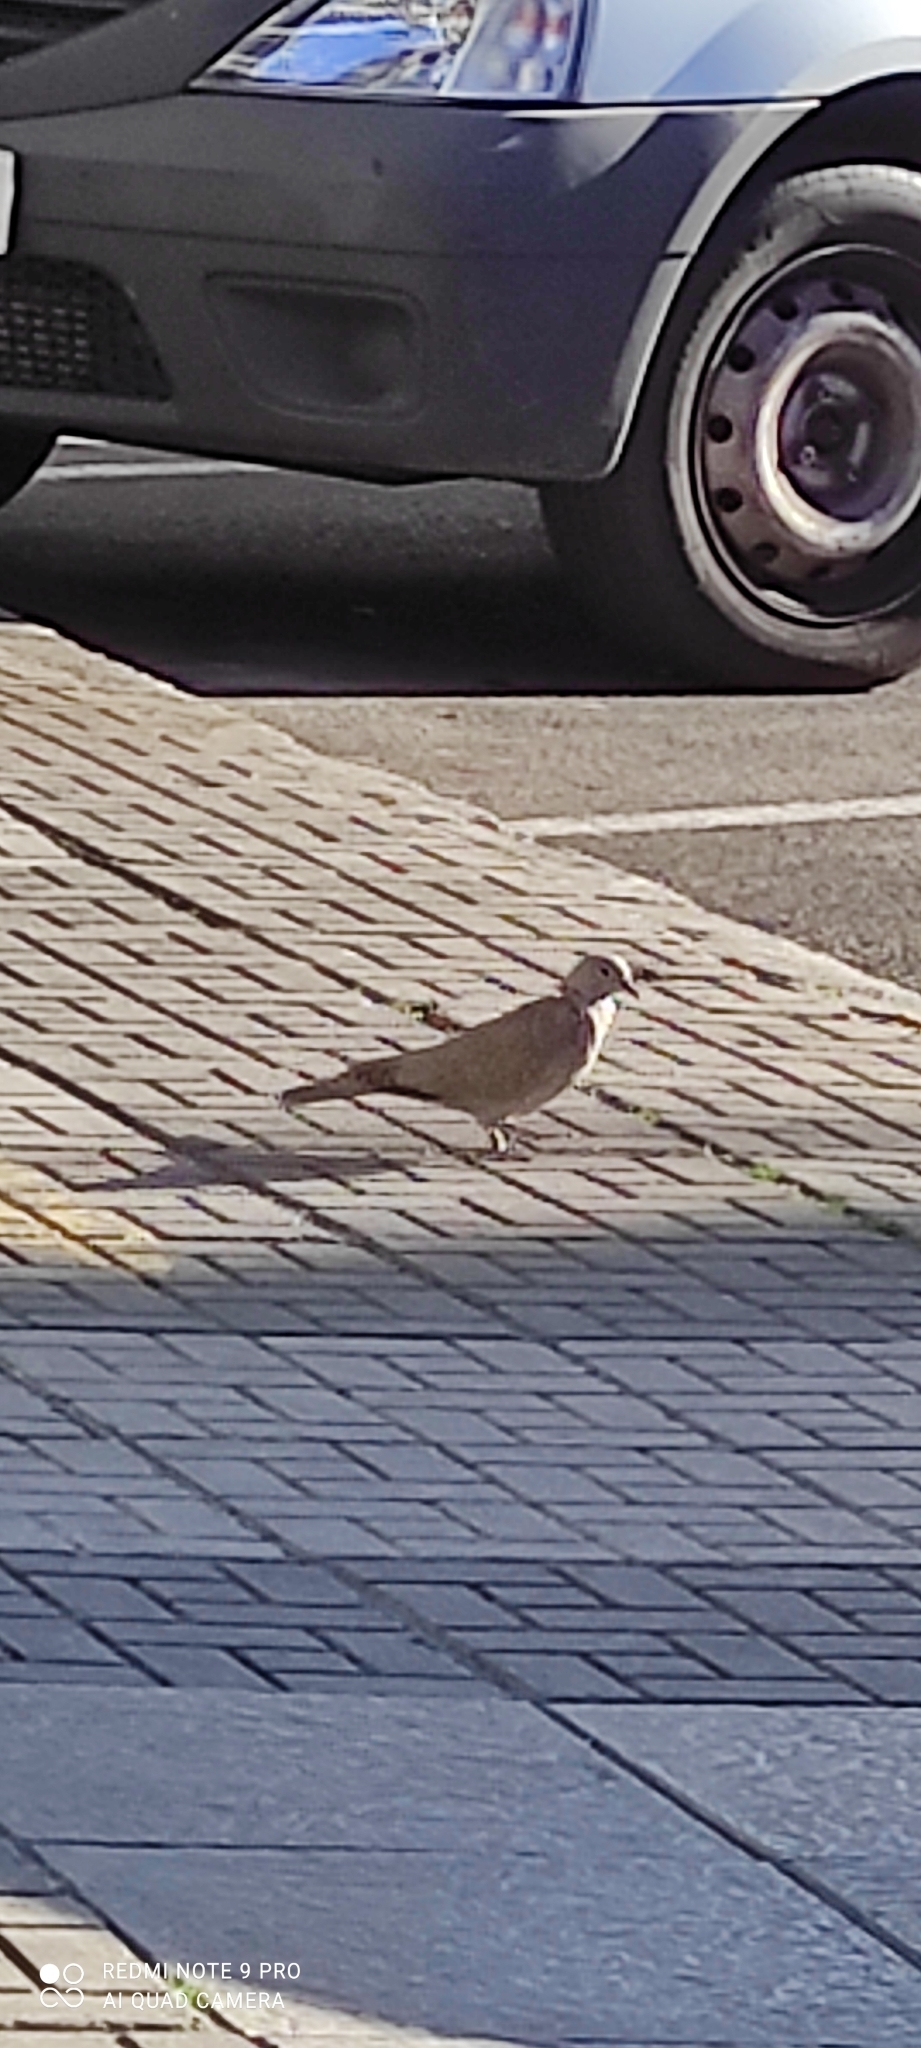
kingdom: Animalia
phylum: Chordata
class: Aves
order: Columbiformes
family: Columbidae
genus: Streptopelia
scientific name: Streptopelia decaocto
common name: Eurasian collared dove
